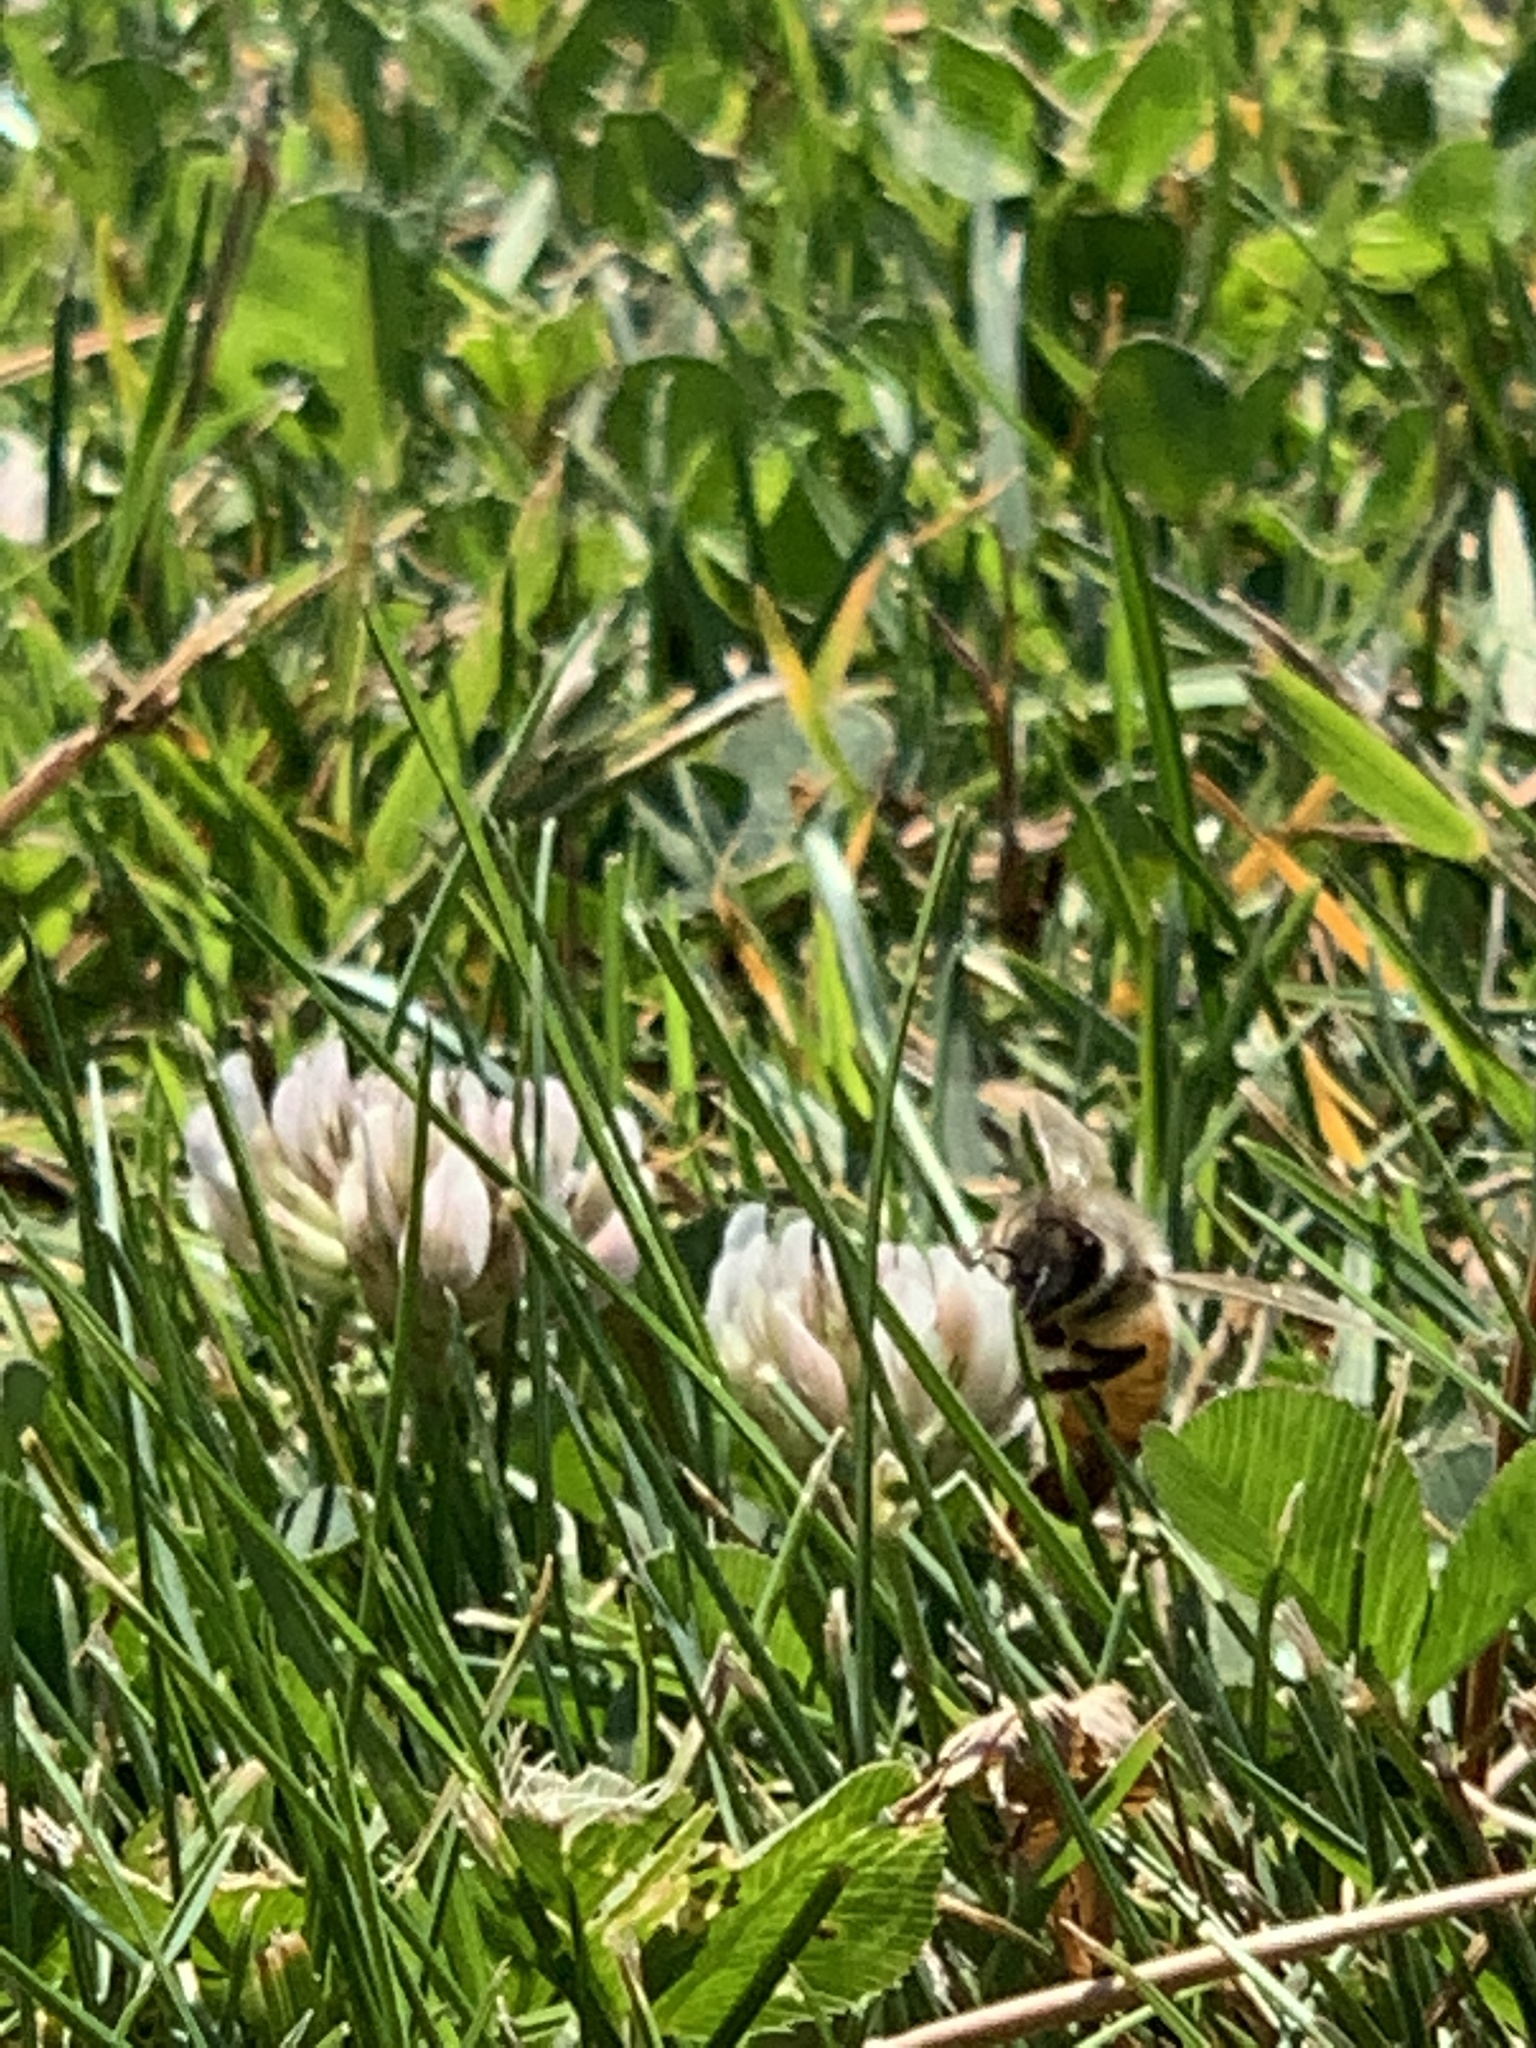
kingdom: Animalia
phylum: Arthropoda
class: Insecta
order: Hymenoptera
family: Apidae
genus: Apis
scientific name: Apis mellifera
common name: Honey bee
